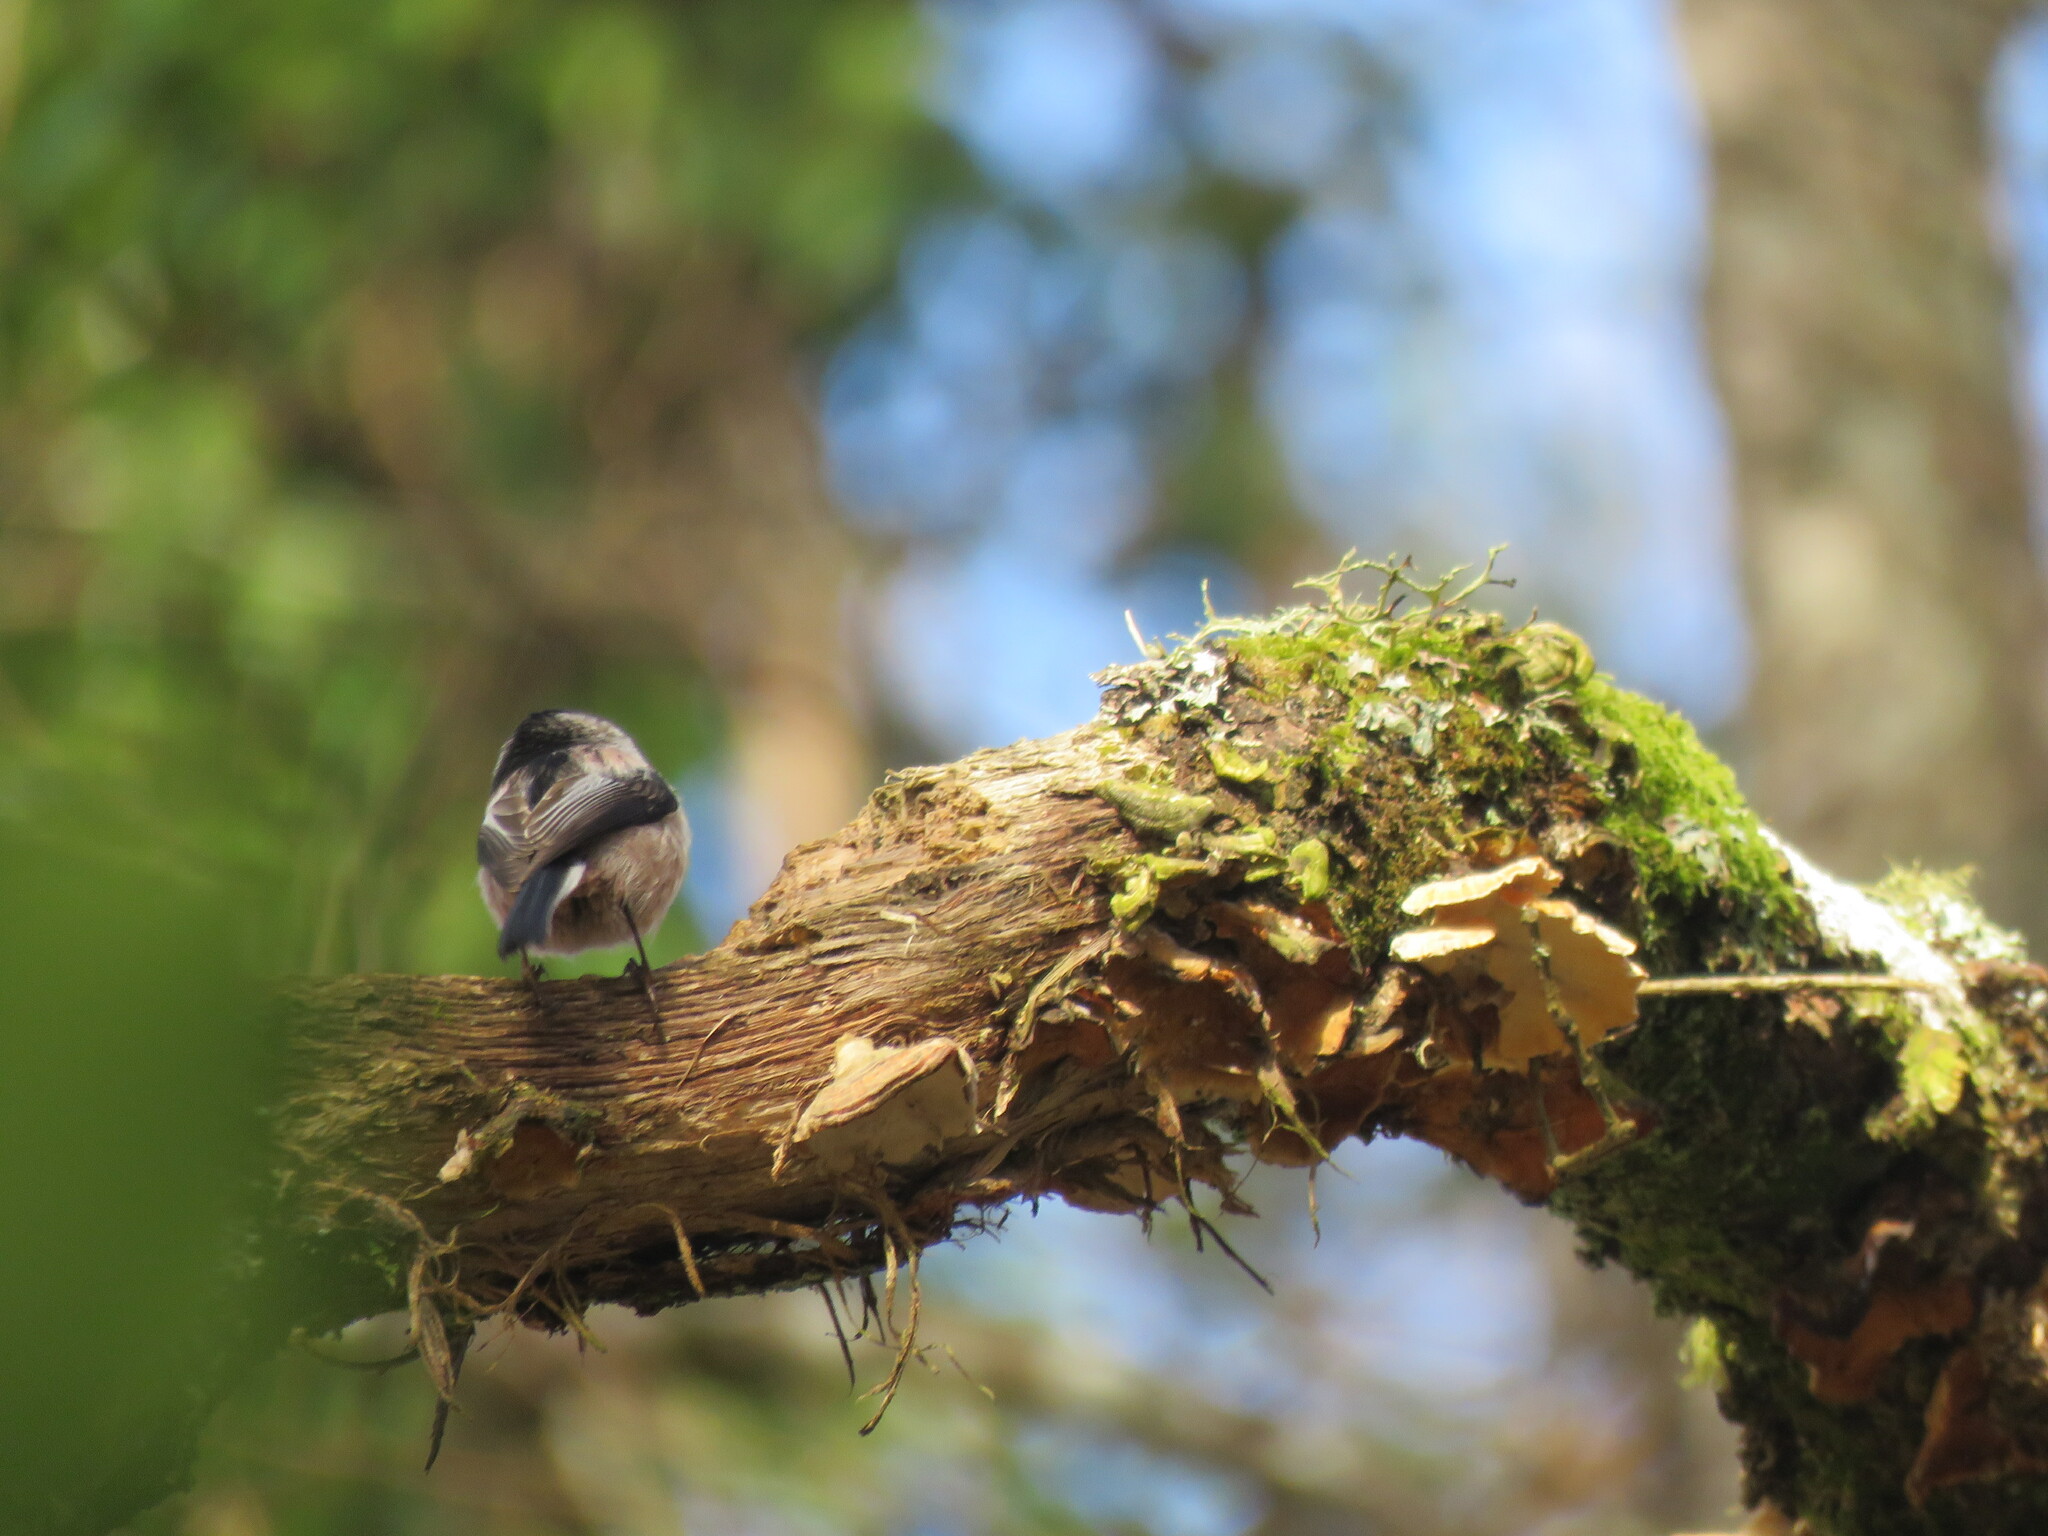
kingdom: Animalia
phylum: Chordata
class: Aves
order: Passeriformes
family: Aegithalidae
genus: Aegithalos
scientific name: Aegithalos caudatus
